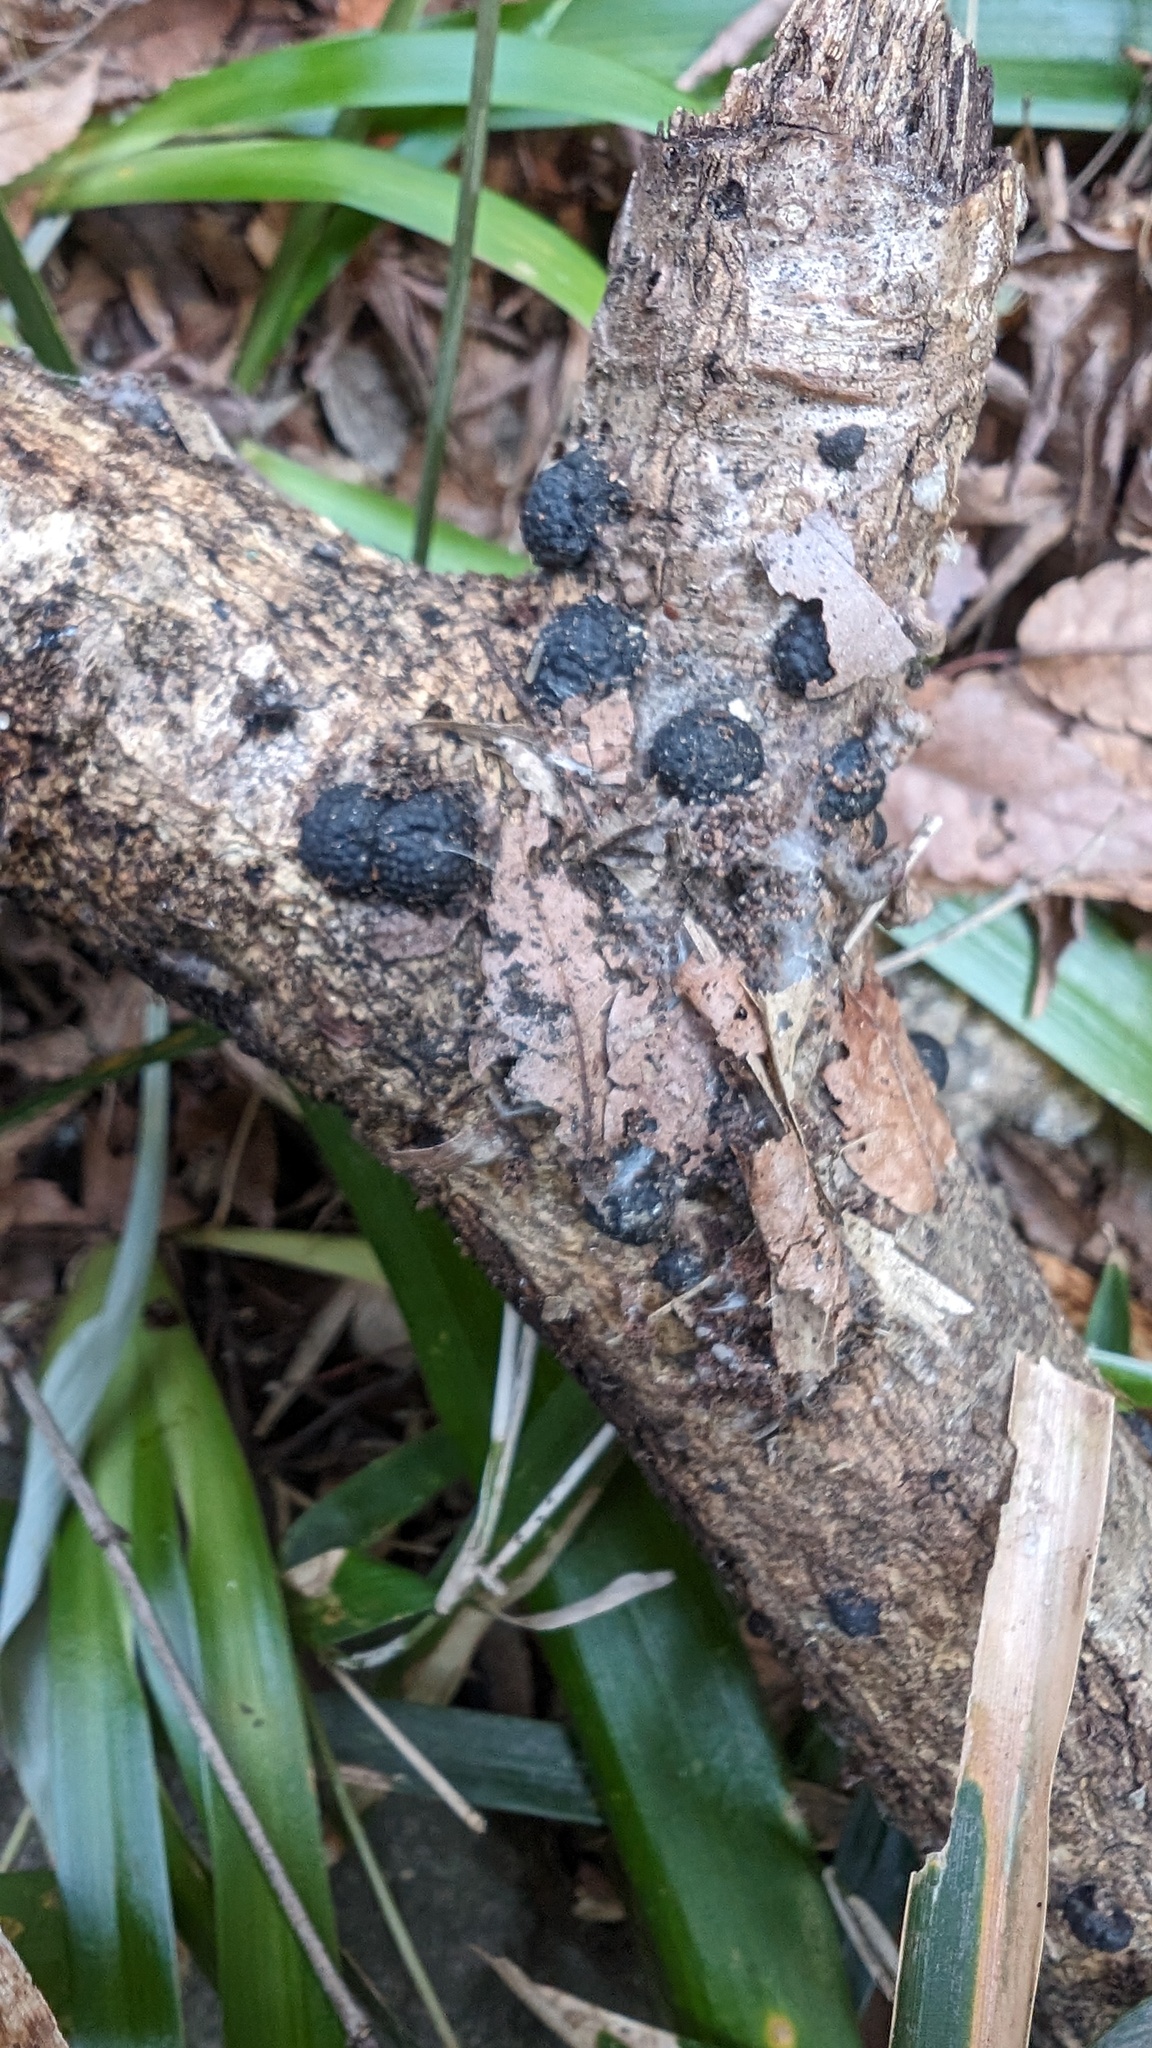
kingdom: Fungi
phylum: Ascomycota
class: Sordariomycetes
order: Xylariales
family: Hypoxylaceae
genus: Annulohypoxylon
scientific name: Annulohypoxylon truncatum
